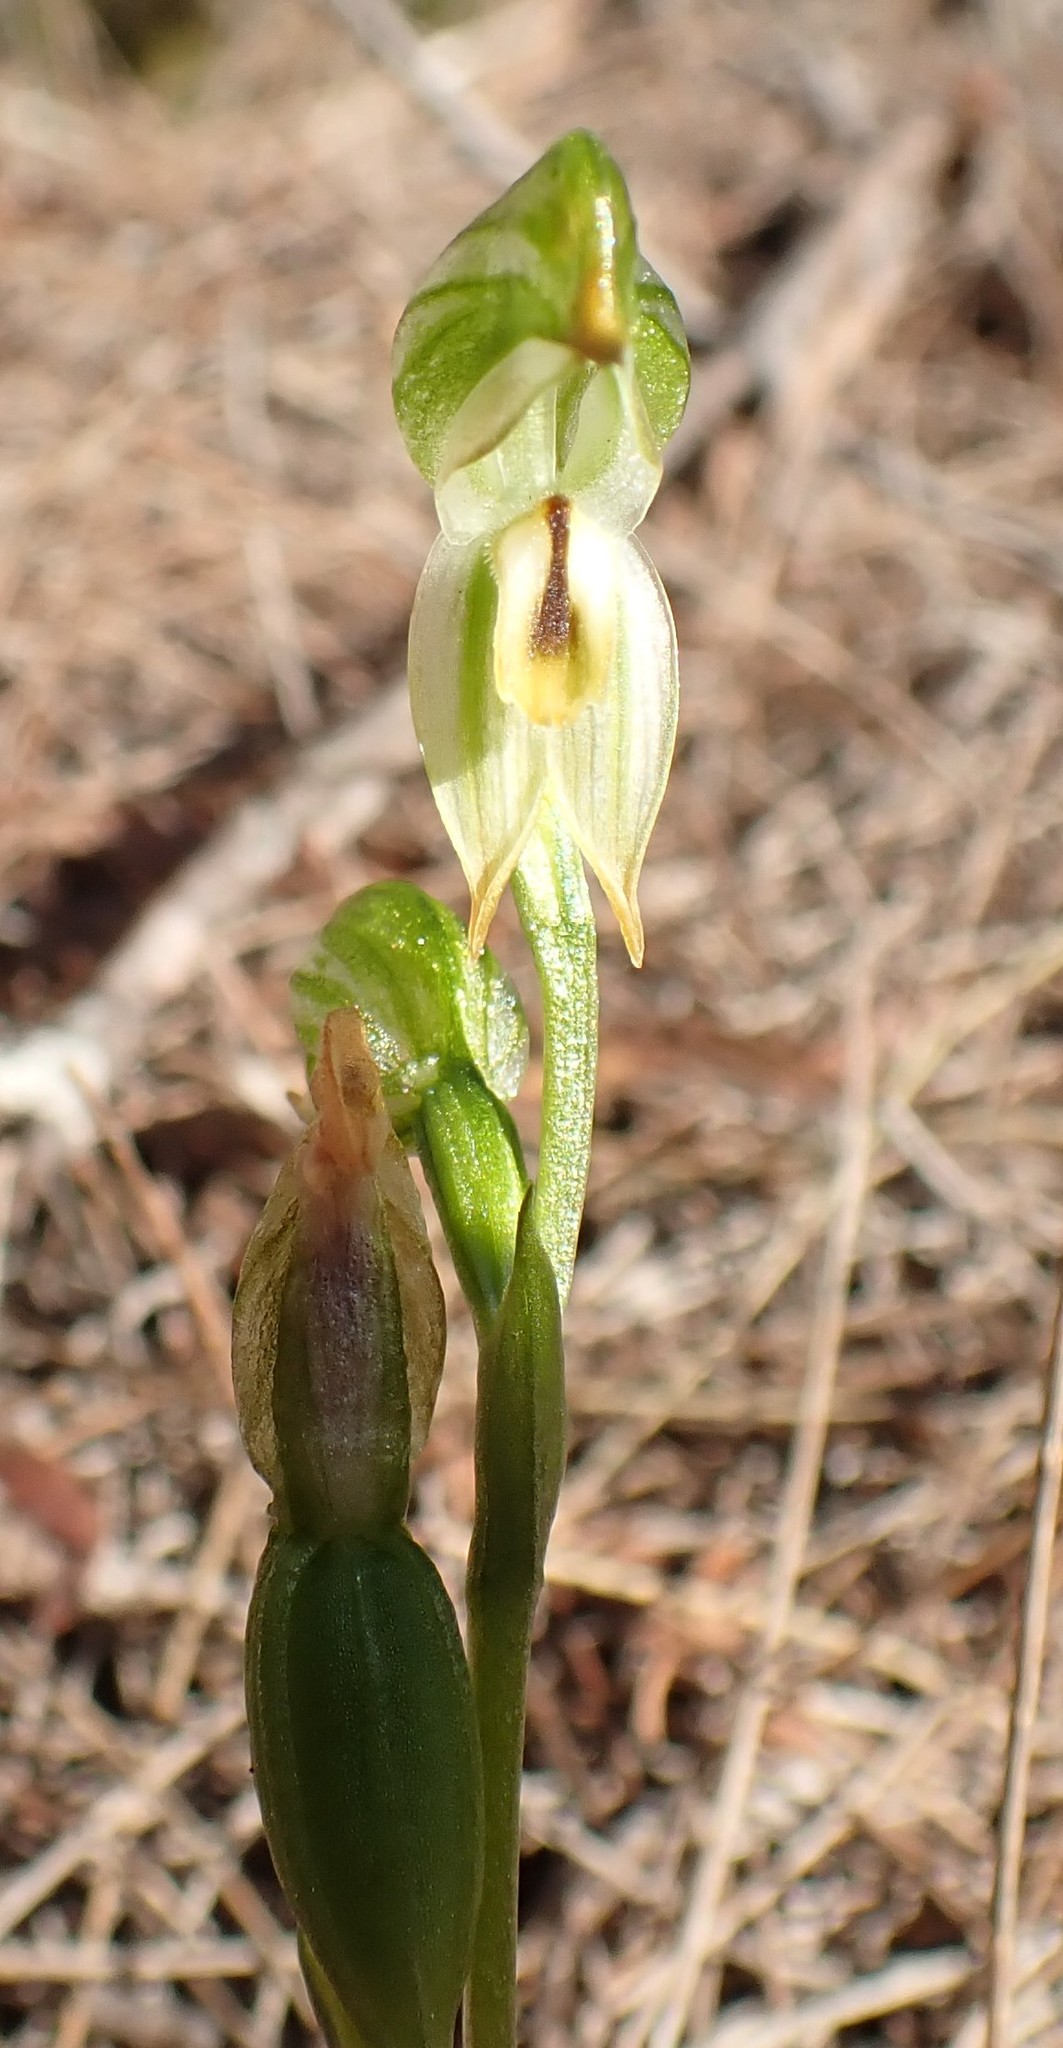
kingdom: Plantae
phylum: Tracheophyta
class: Liliopsida
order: Asparagales
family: Orchidaceae
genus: Pterostylis
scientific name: Pterostylis melagramma
